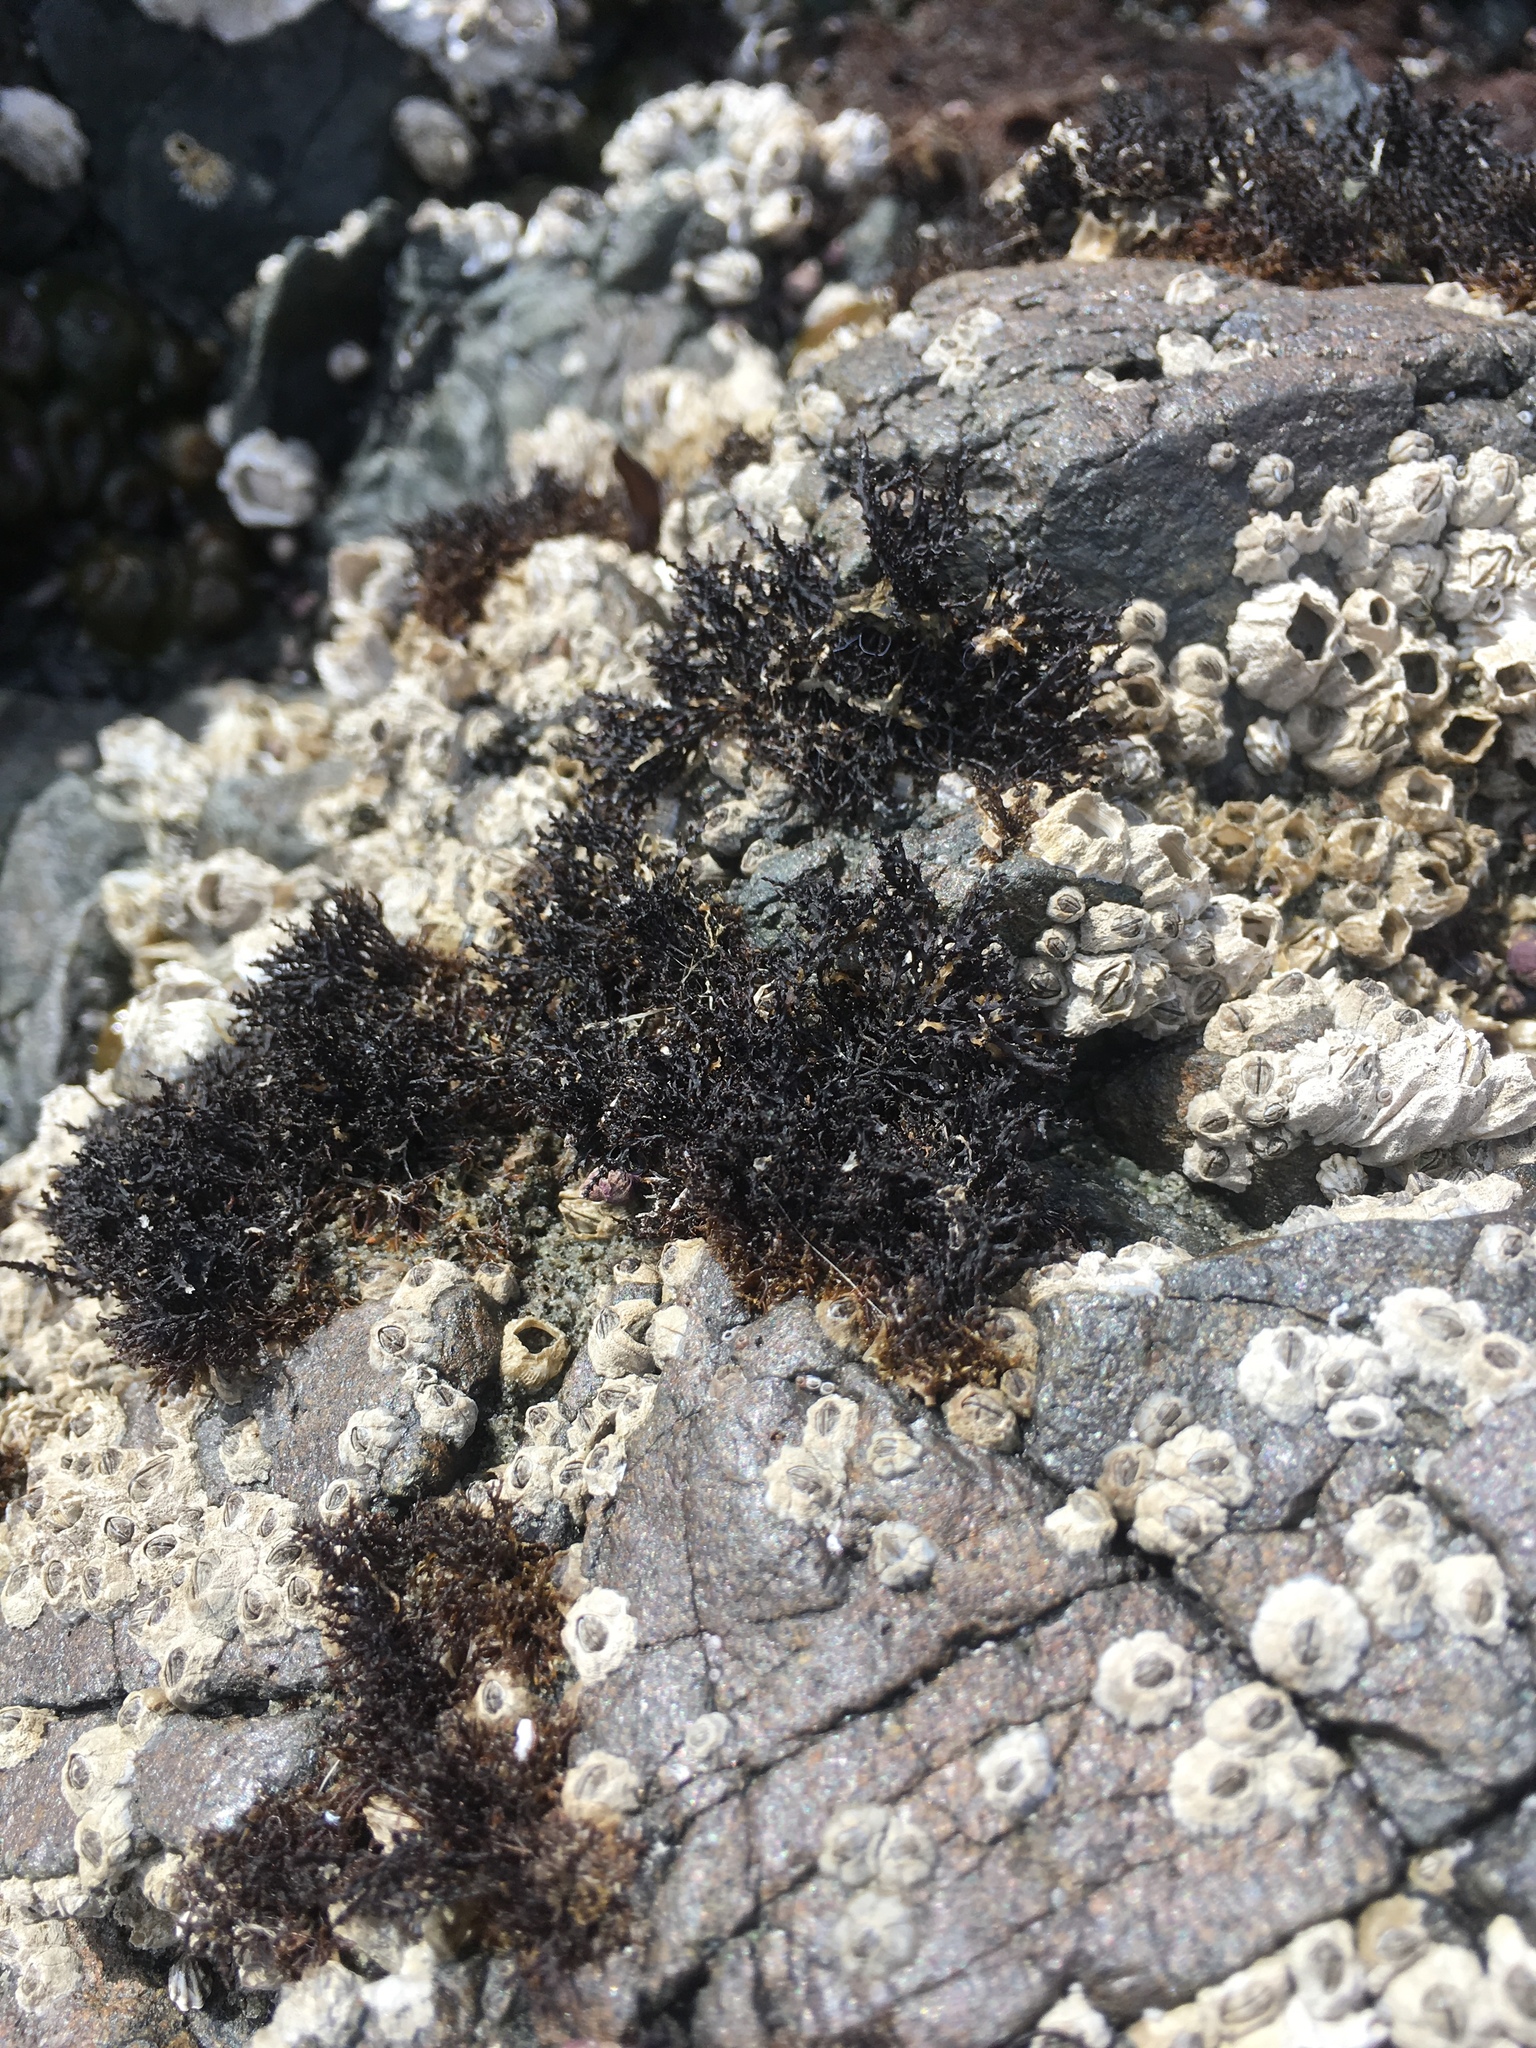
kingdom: Plantae
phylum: Rhodophyta
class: Florideophyceae
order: Gigartinales
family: Endocladiaceae
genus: Endocladia
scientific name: Endocladia muricata
